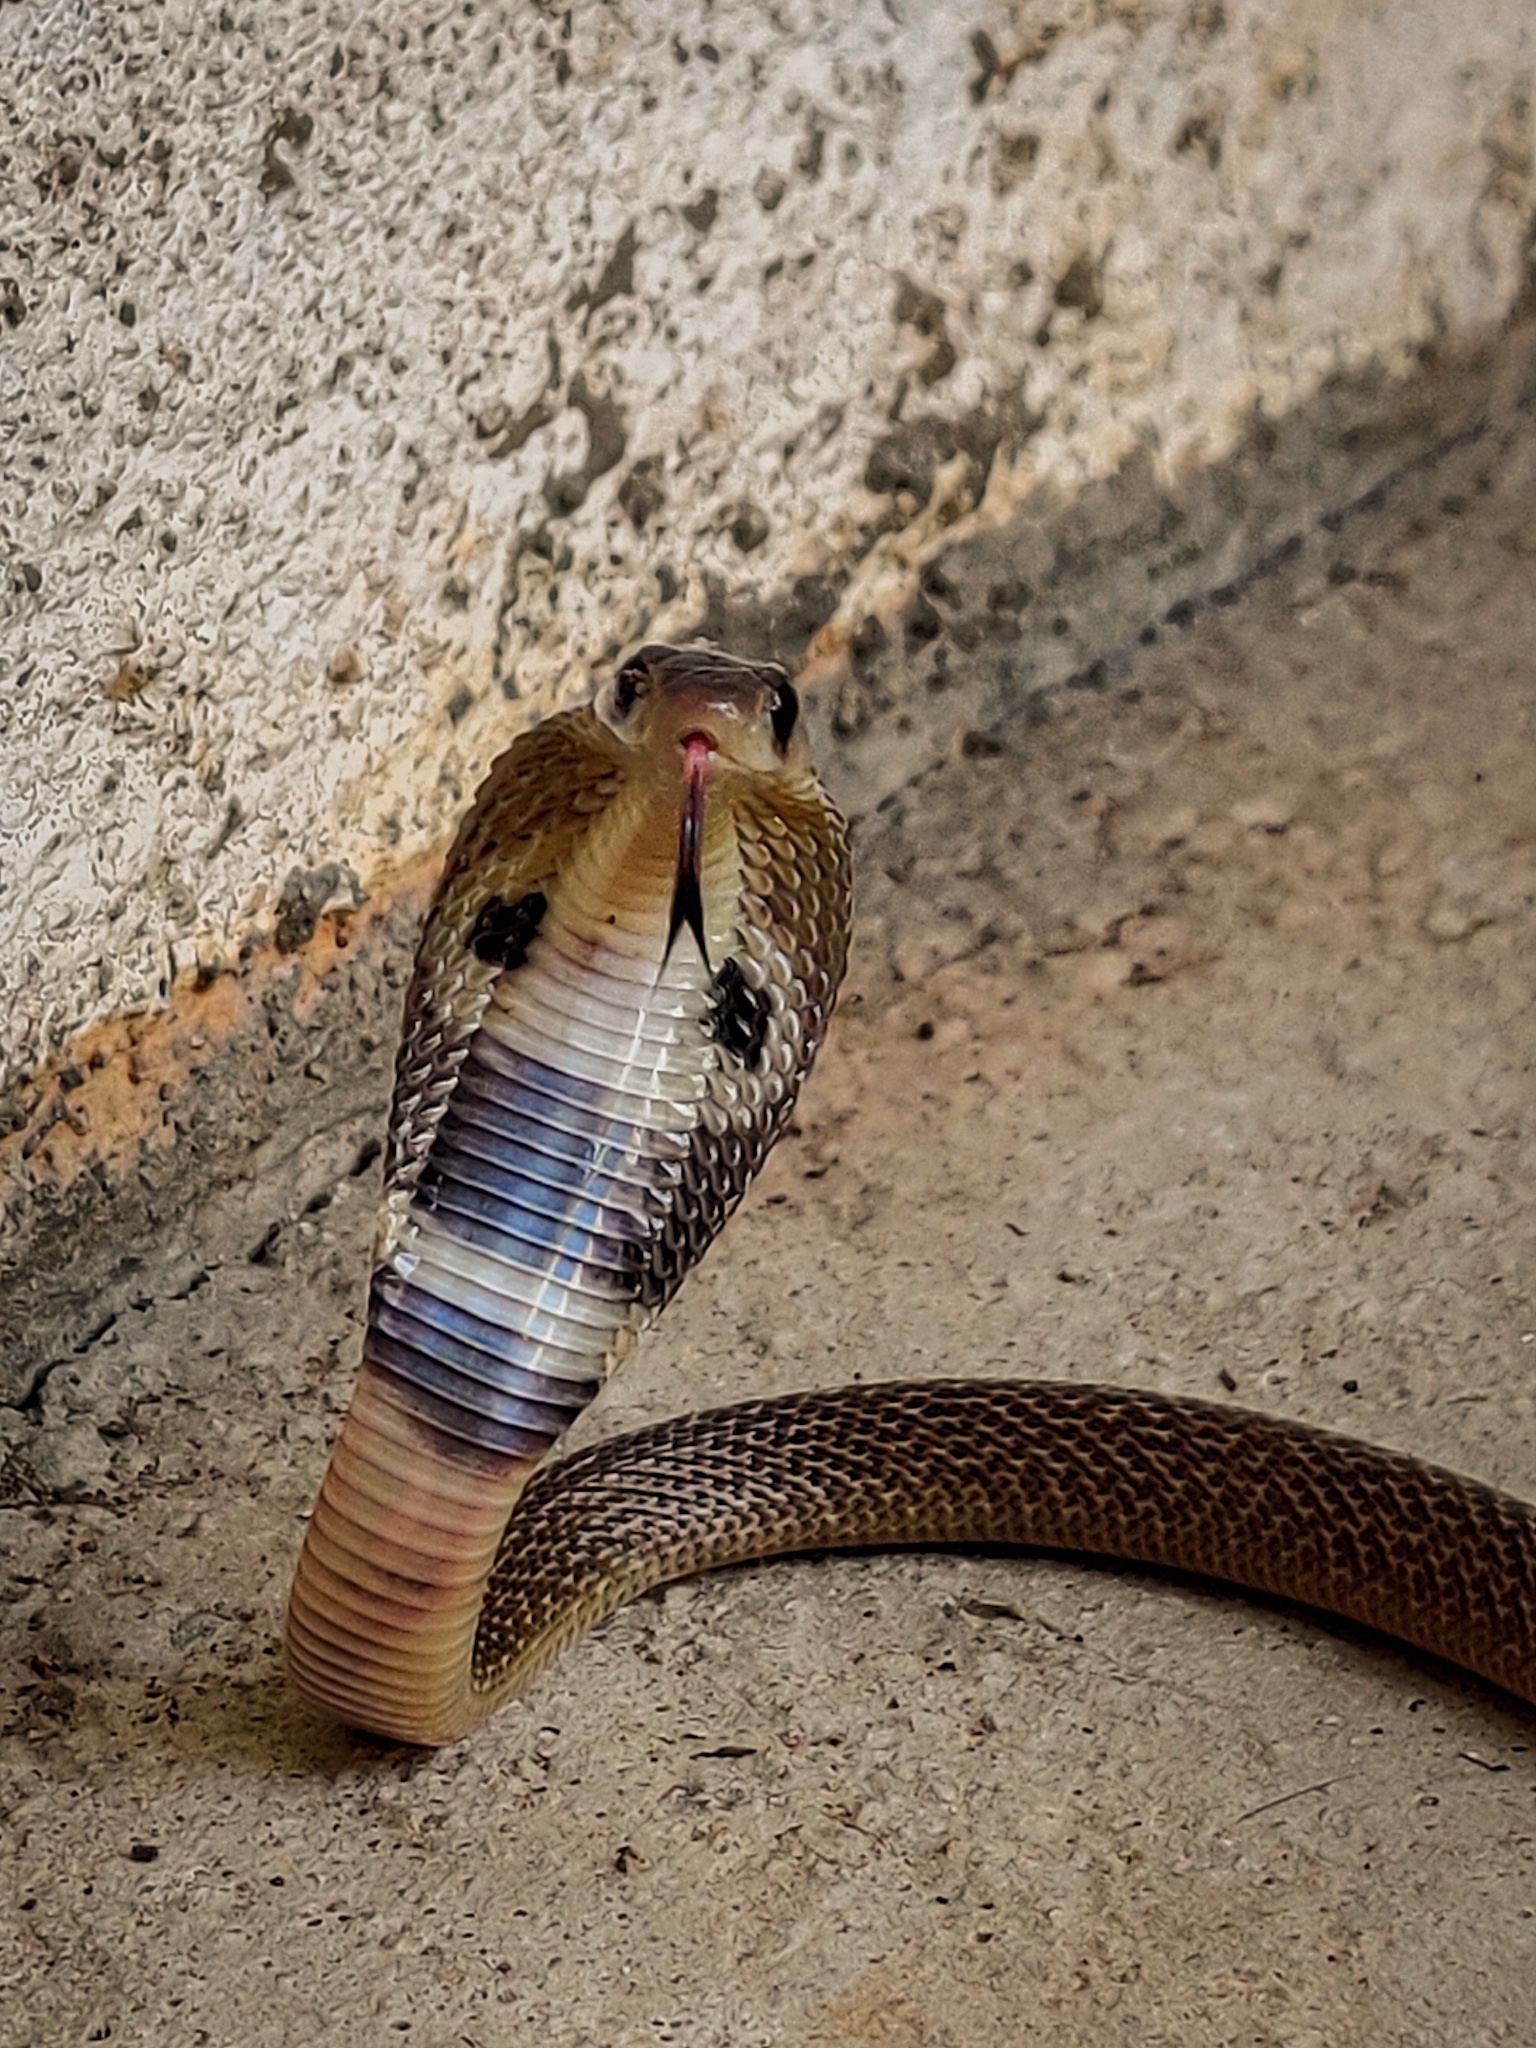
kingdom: Animalia
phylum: Chordata
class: Squamata
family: Elapidae
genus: Naja
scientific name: Naja naja
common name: Indian cobra
